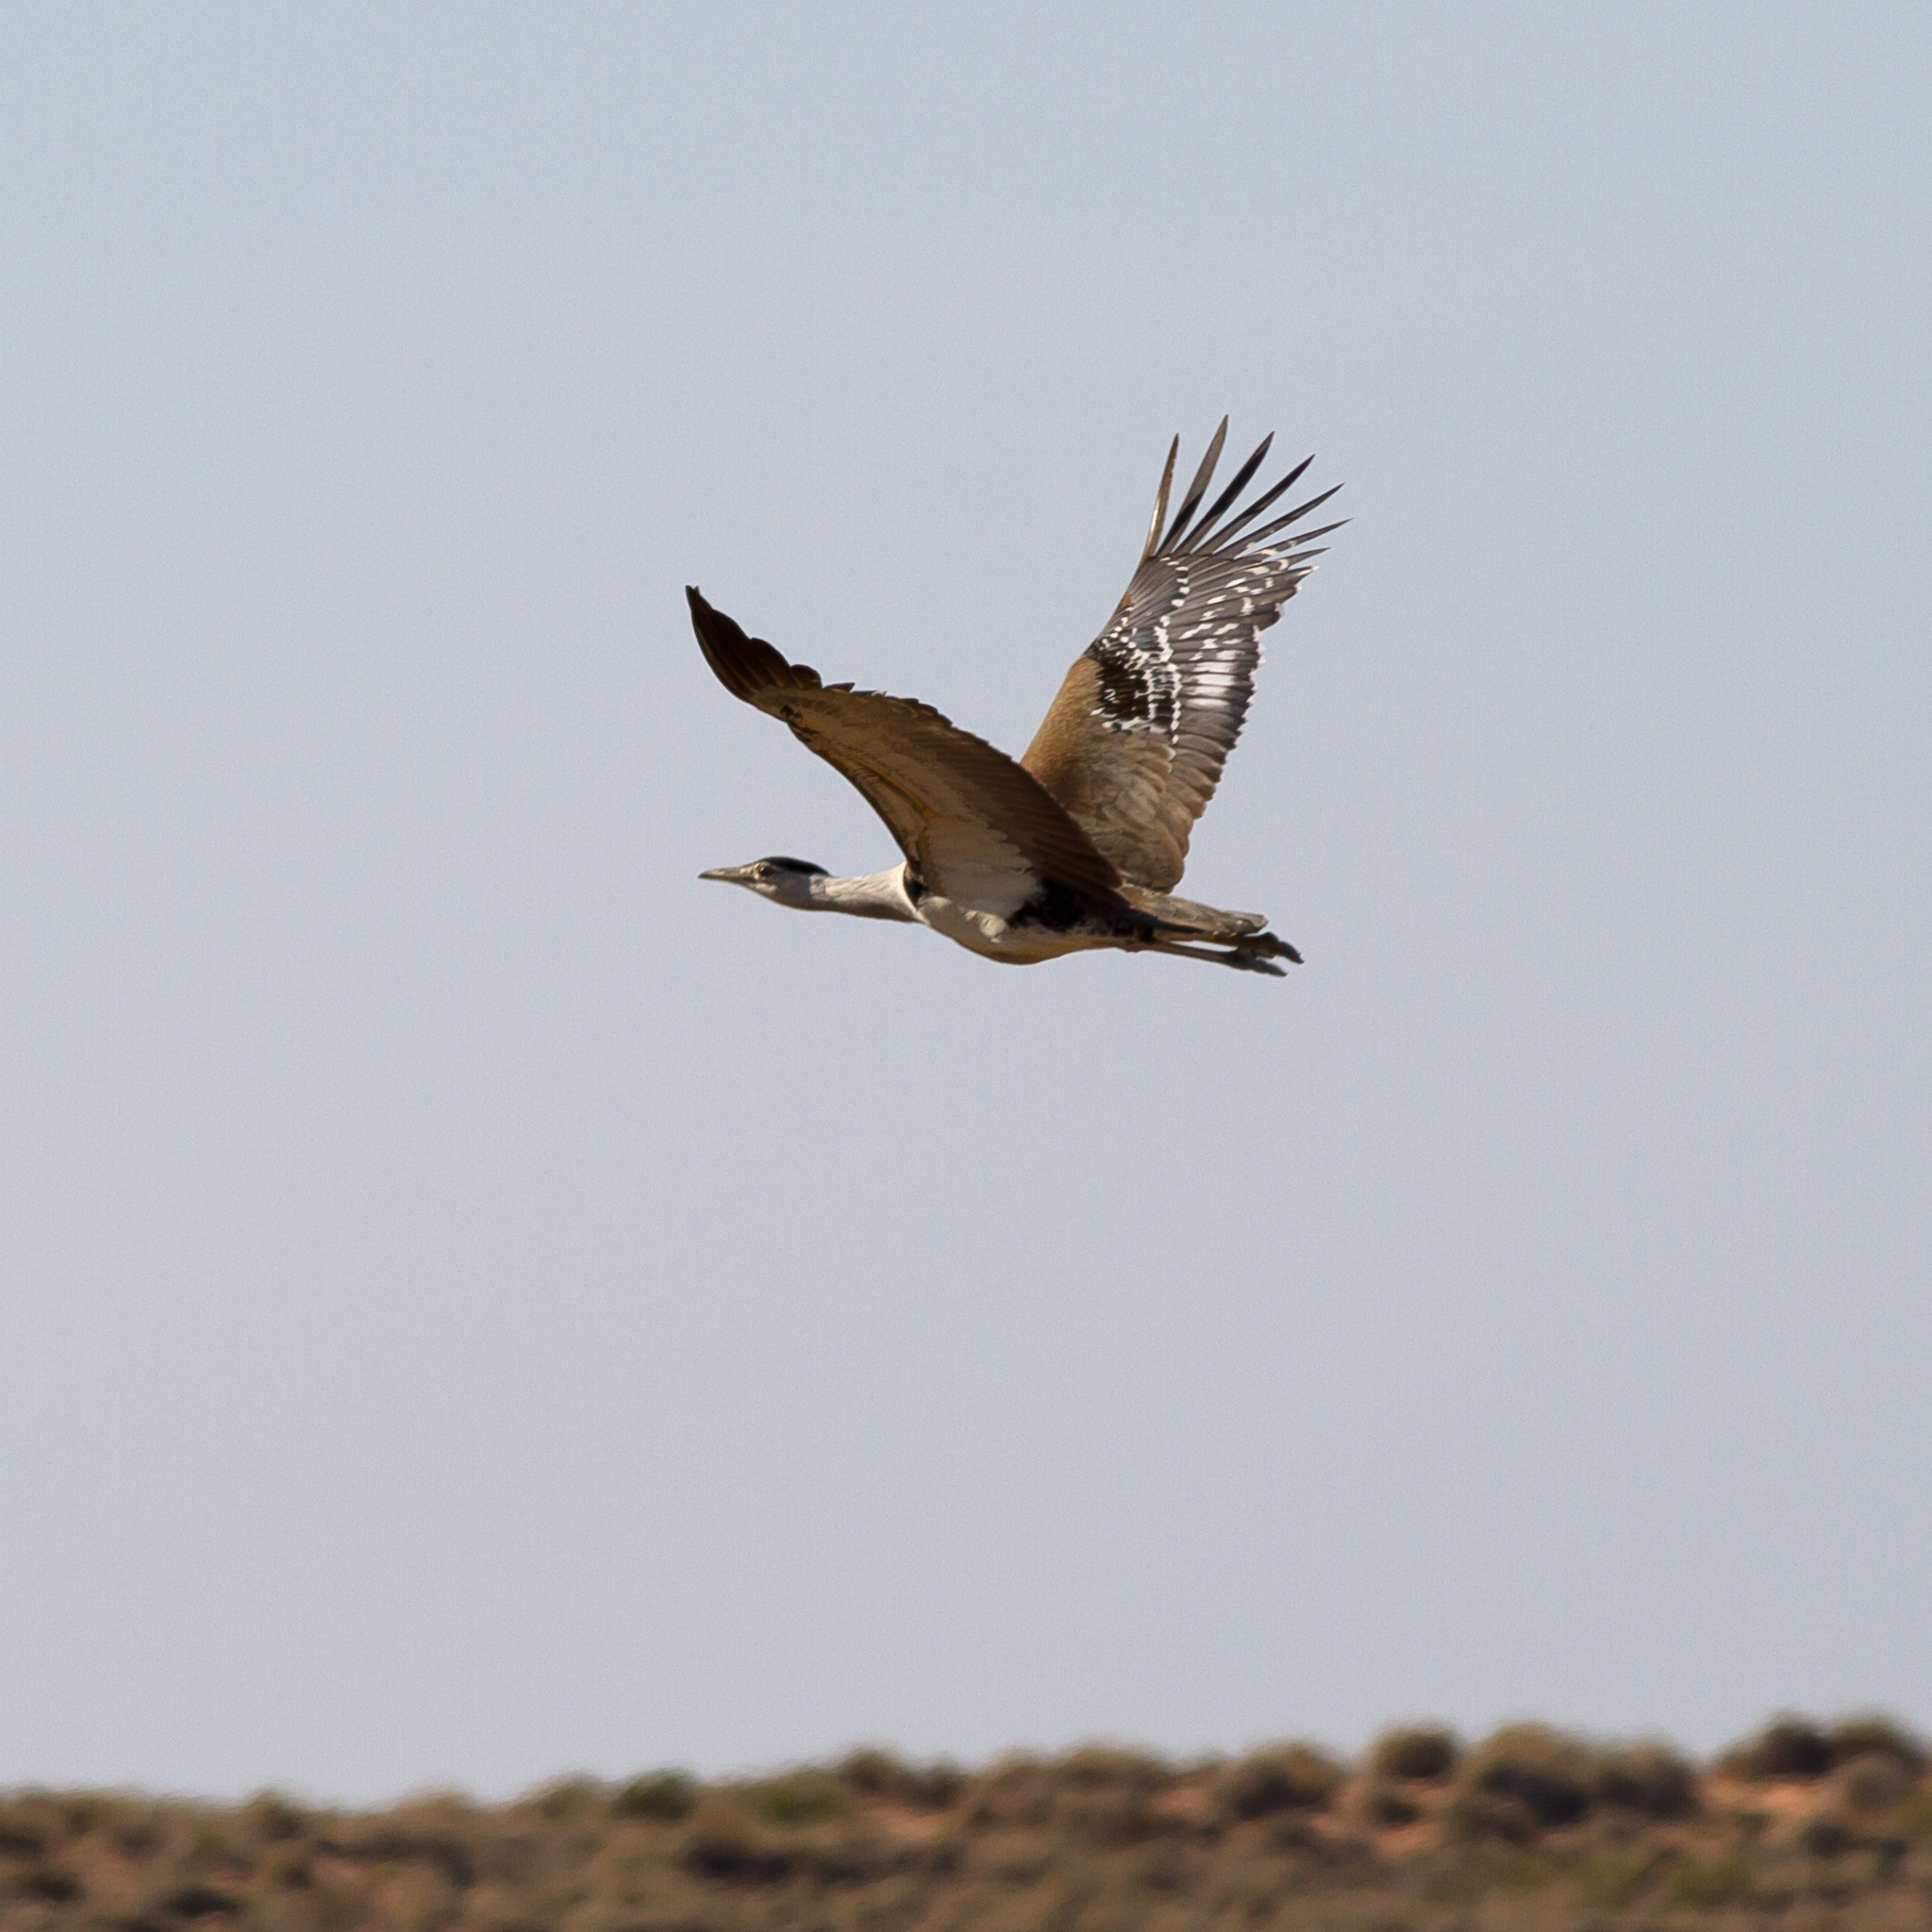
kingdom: Animalia
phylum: Chordata
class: Aves
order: Otidiformes
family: Otididae
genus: Ardeotis
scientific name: Ardeotis australis
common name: Australian bustard
